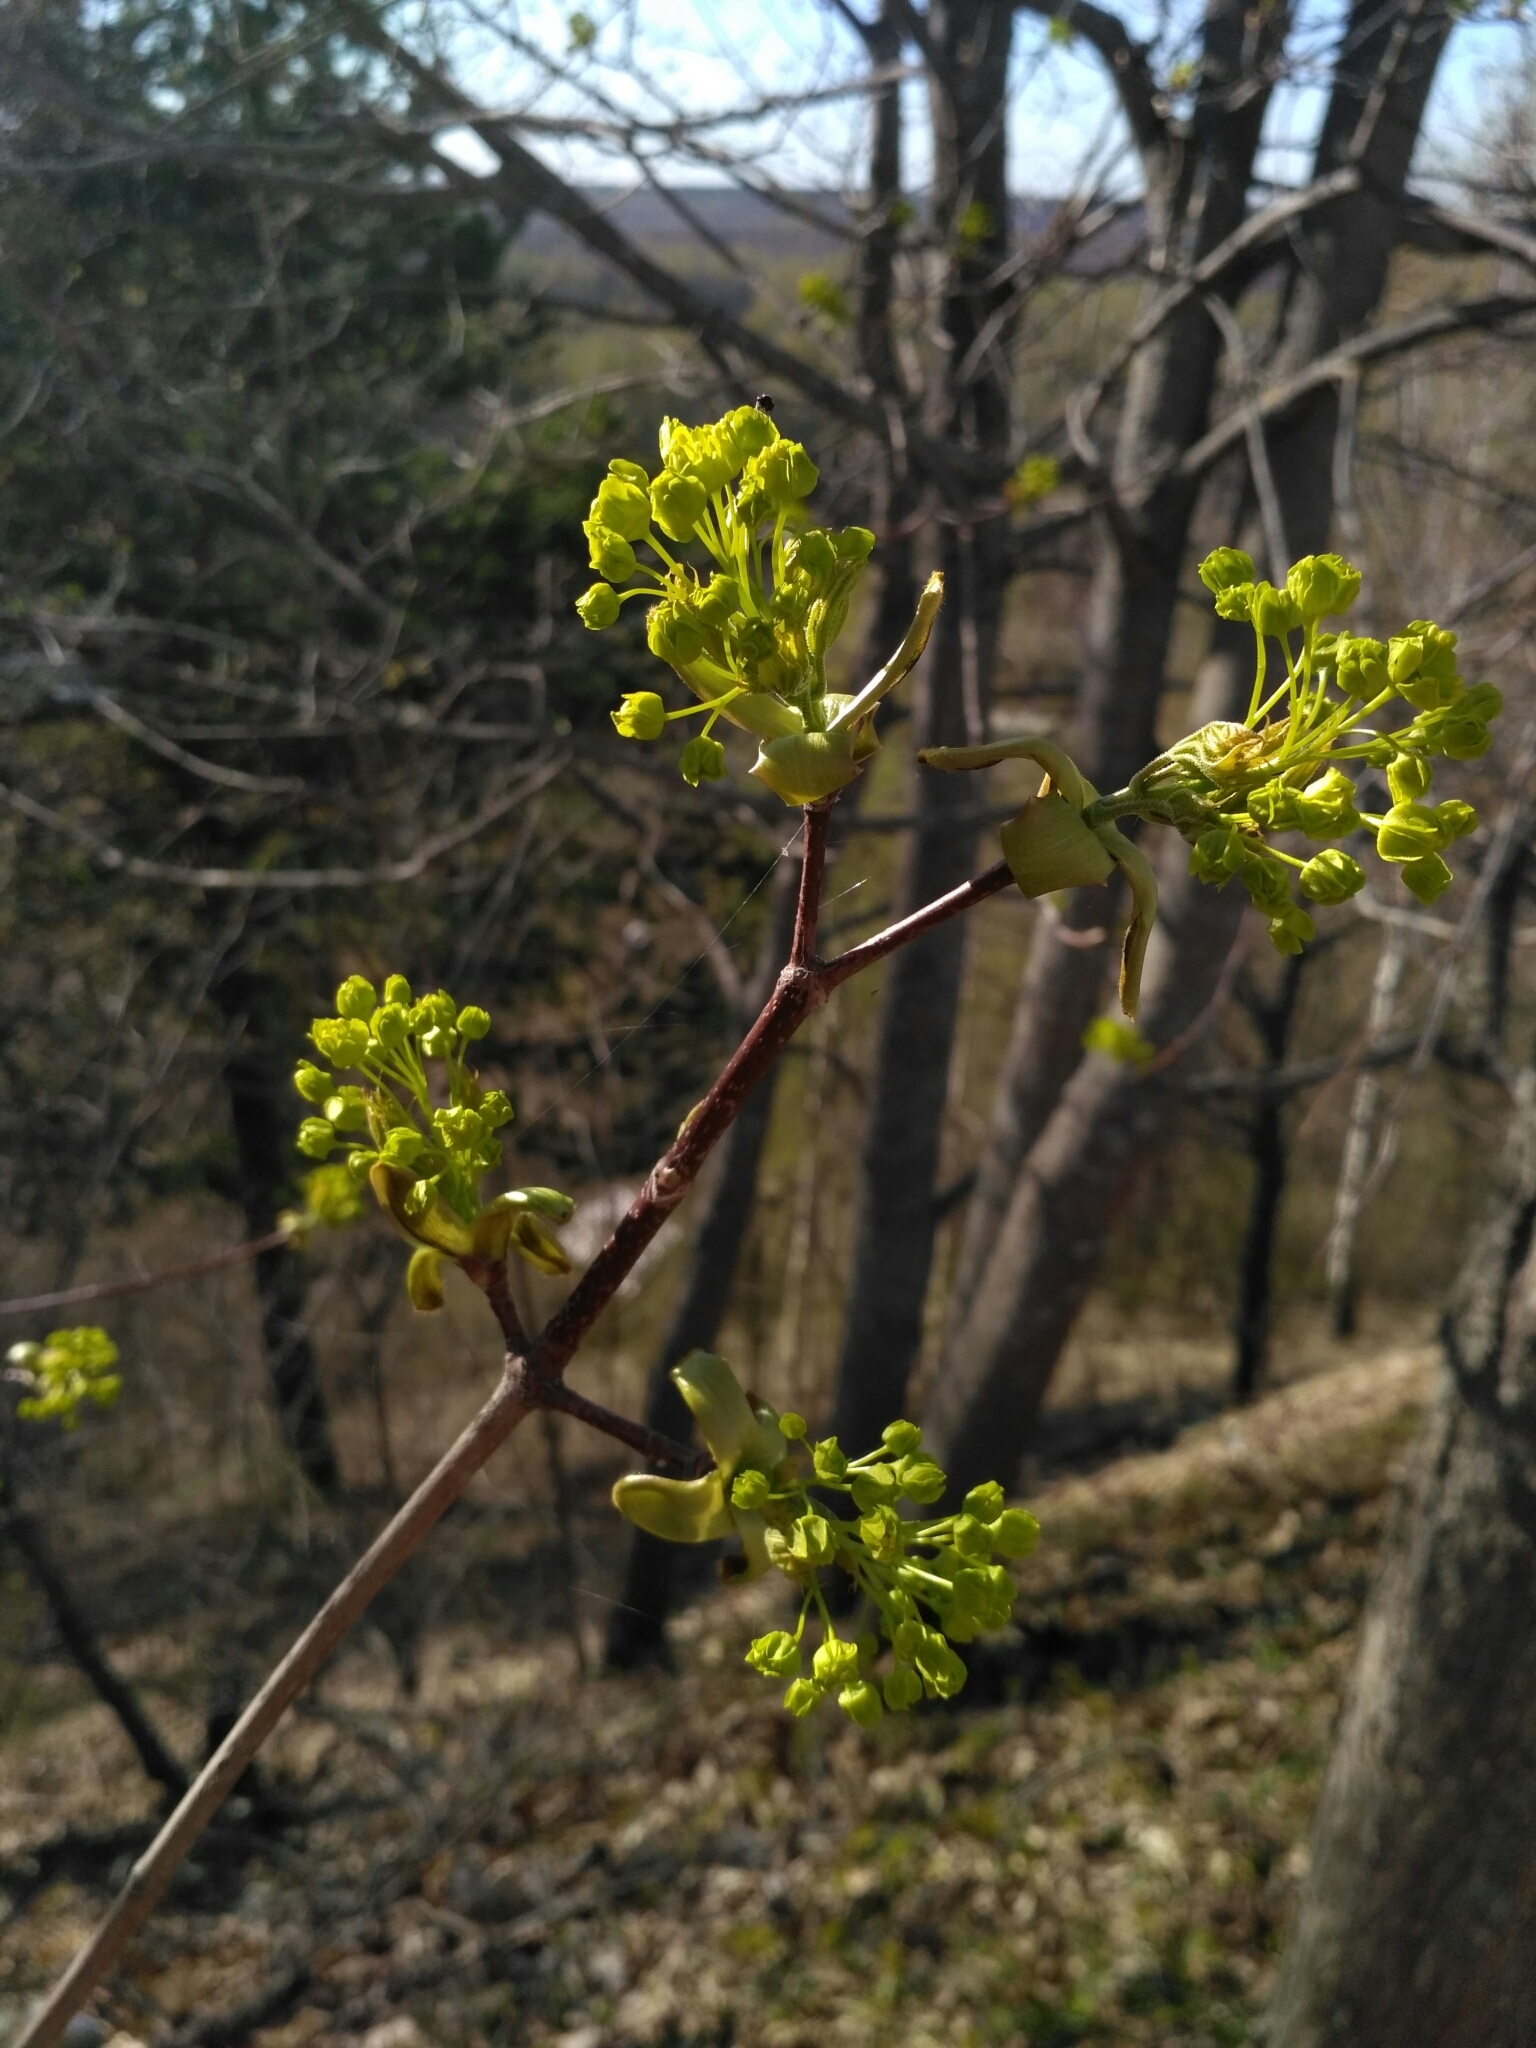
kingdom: Plantae
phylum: Tracheophyta
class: Magnoliopsida
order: Sapindales
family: Sapindaceae
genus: Acer
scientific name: Acer platanoides
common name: Norway maple
